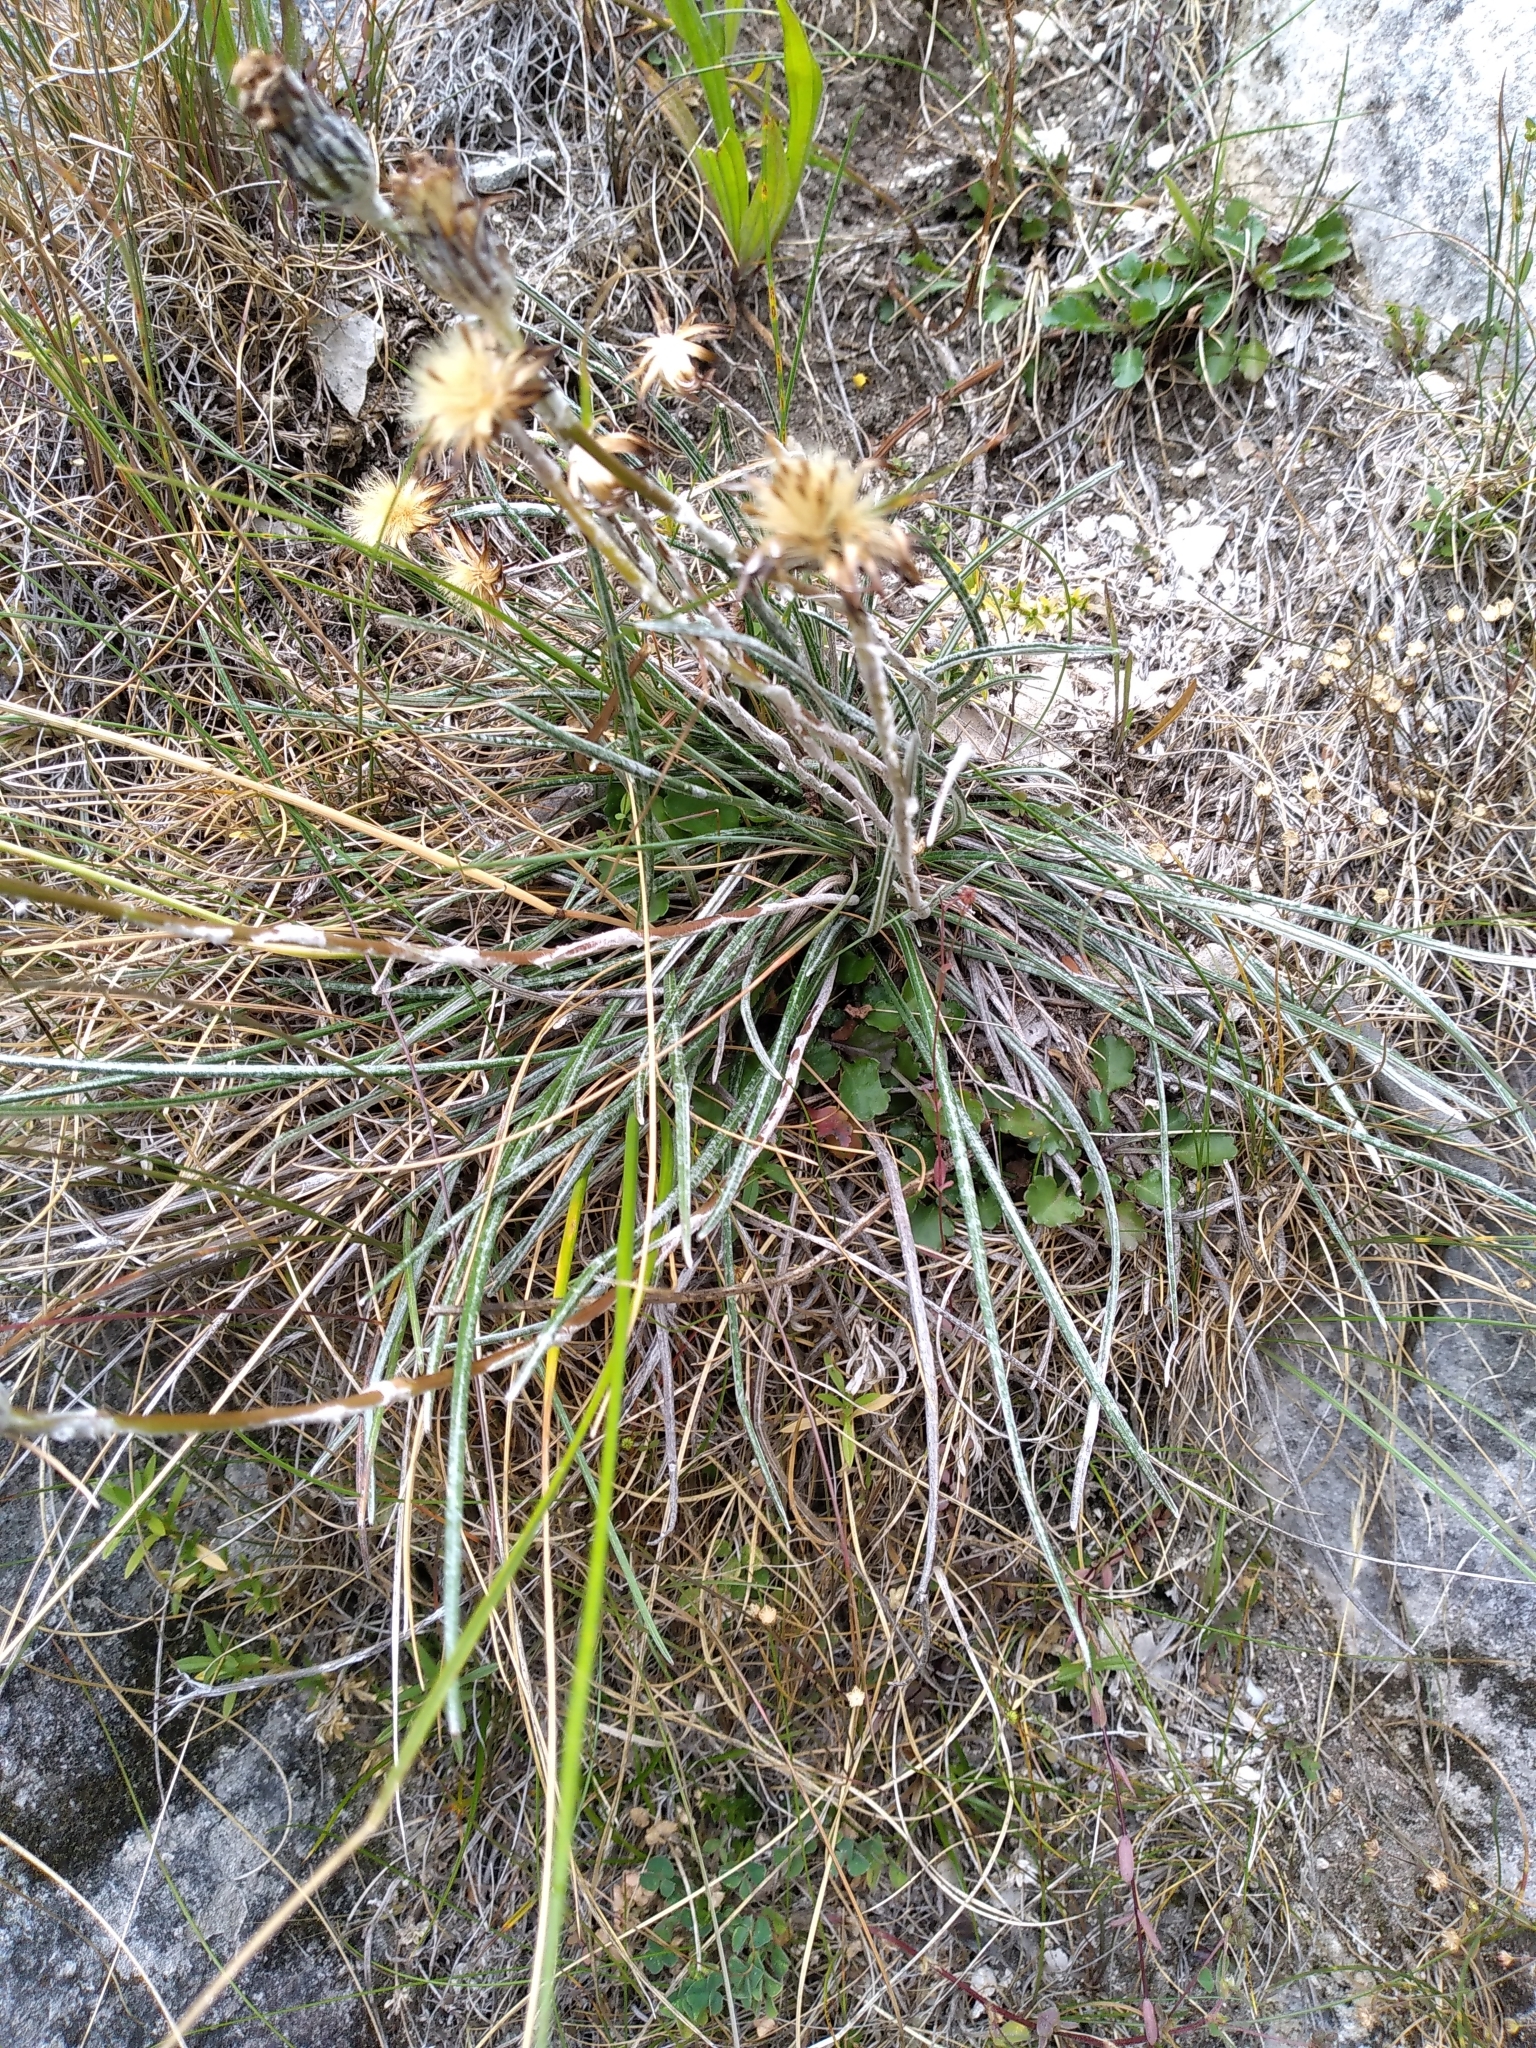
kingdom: Plantae
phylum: Tracheophyta
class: Magnoliopsida
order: Asterales
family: Asteraceae
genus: Celmisia
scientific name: Celmisia gracilenta
